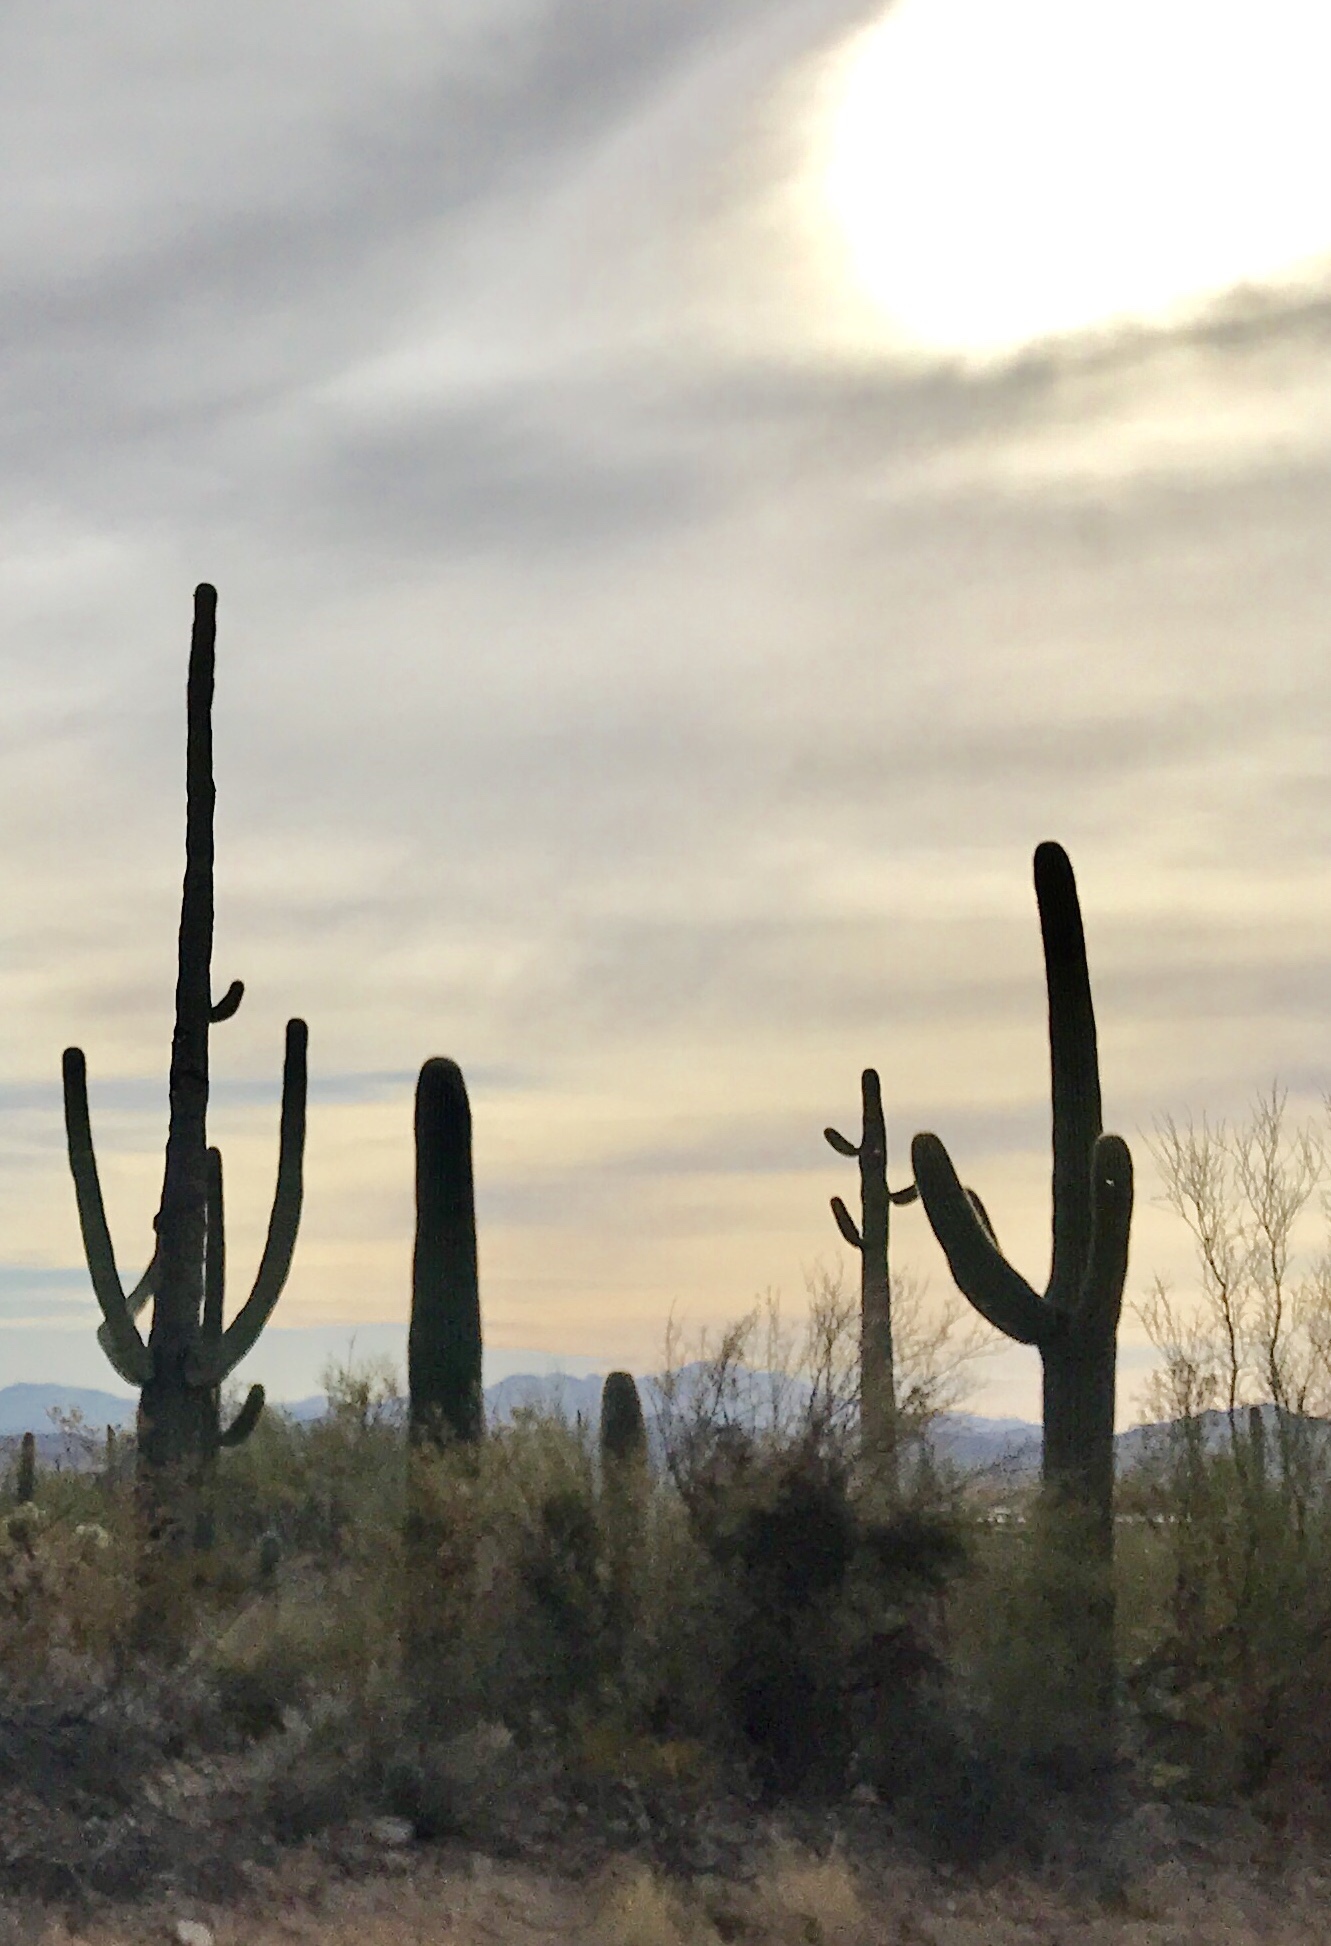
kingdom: Plantae
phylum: Tracheophyta
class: Magnoliopsida
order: Caryophyllales
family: Cactaceae
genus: Carnegiea
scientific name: Carnegiea gigantea
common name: Saguaro
